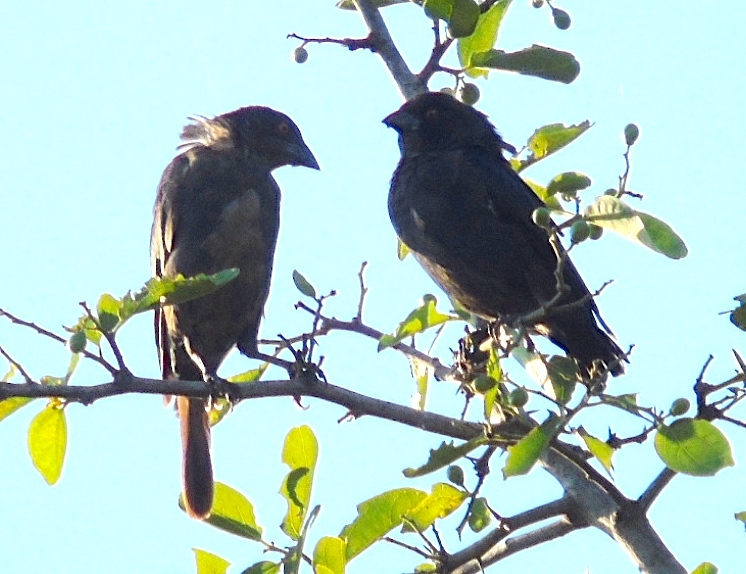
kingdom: Animalia
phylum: Chordata
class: Aves
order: Passeriformes
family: Icteridae
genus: Molothrus
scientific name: Molothrus aeneus
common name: Bronzed cowbird
